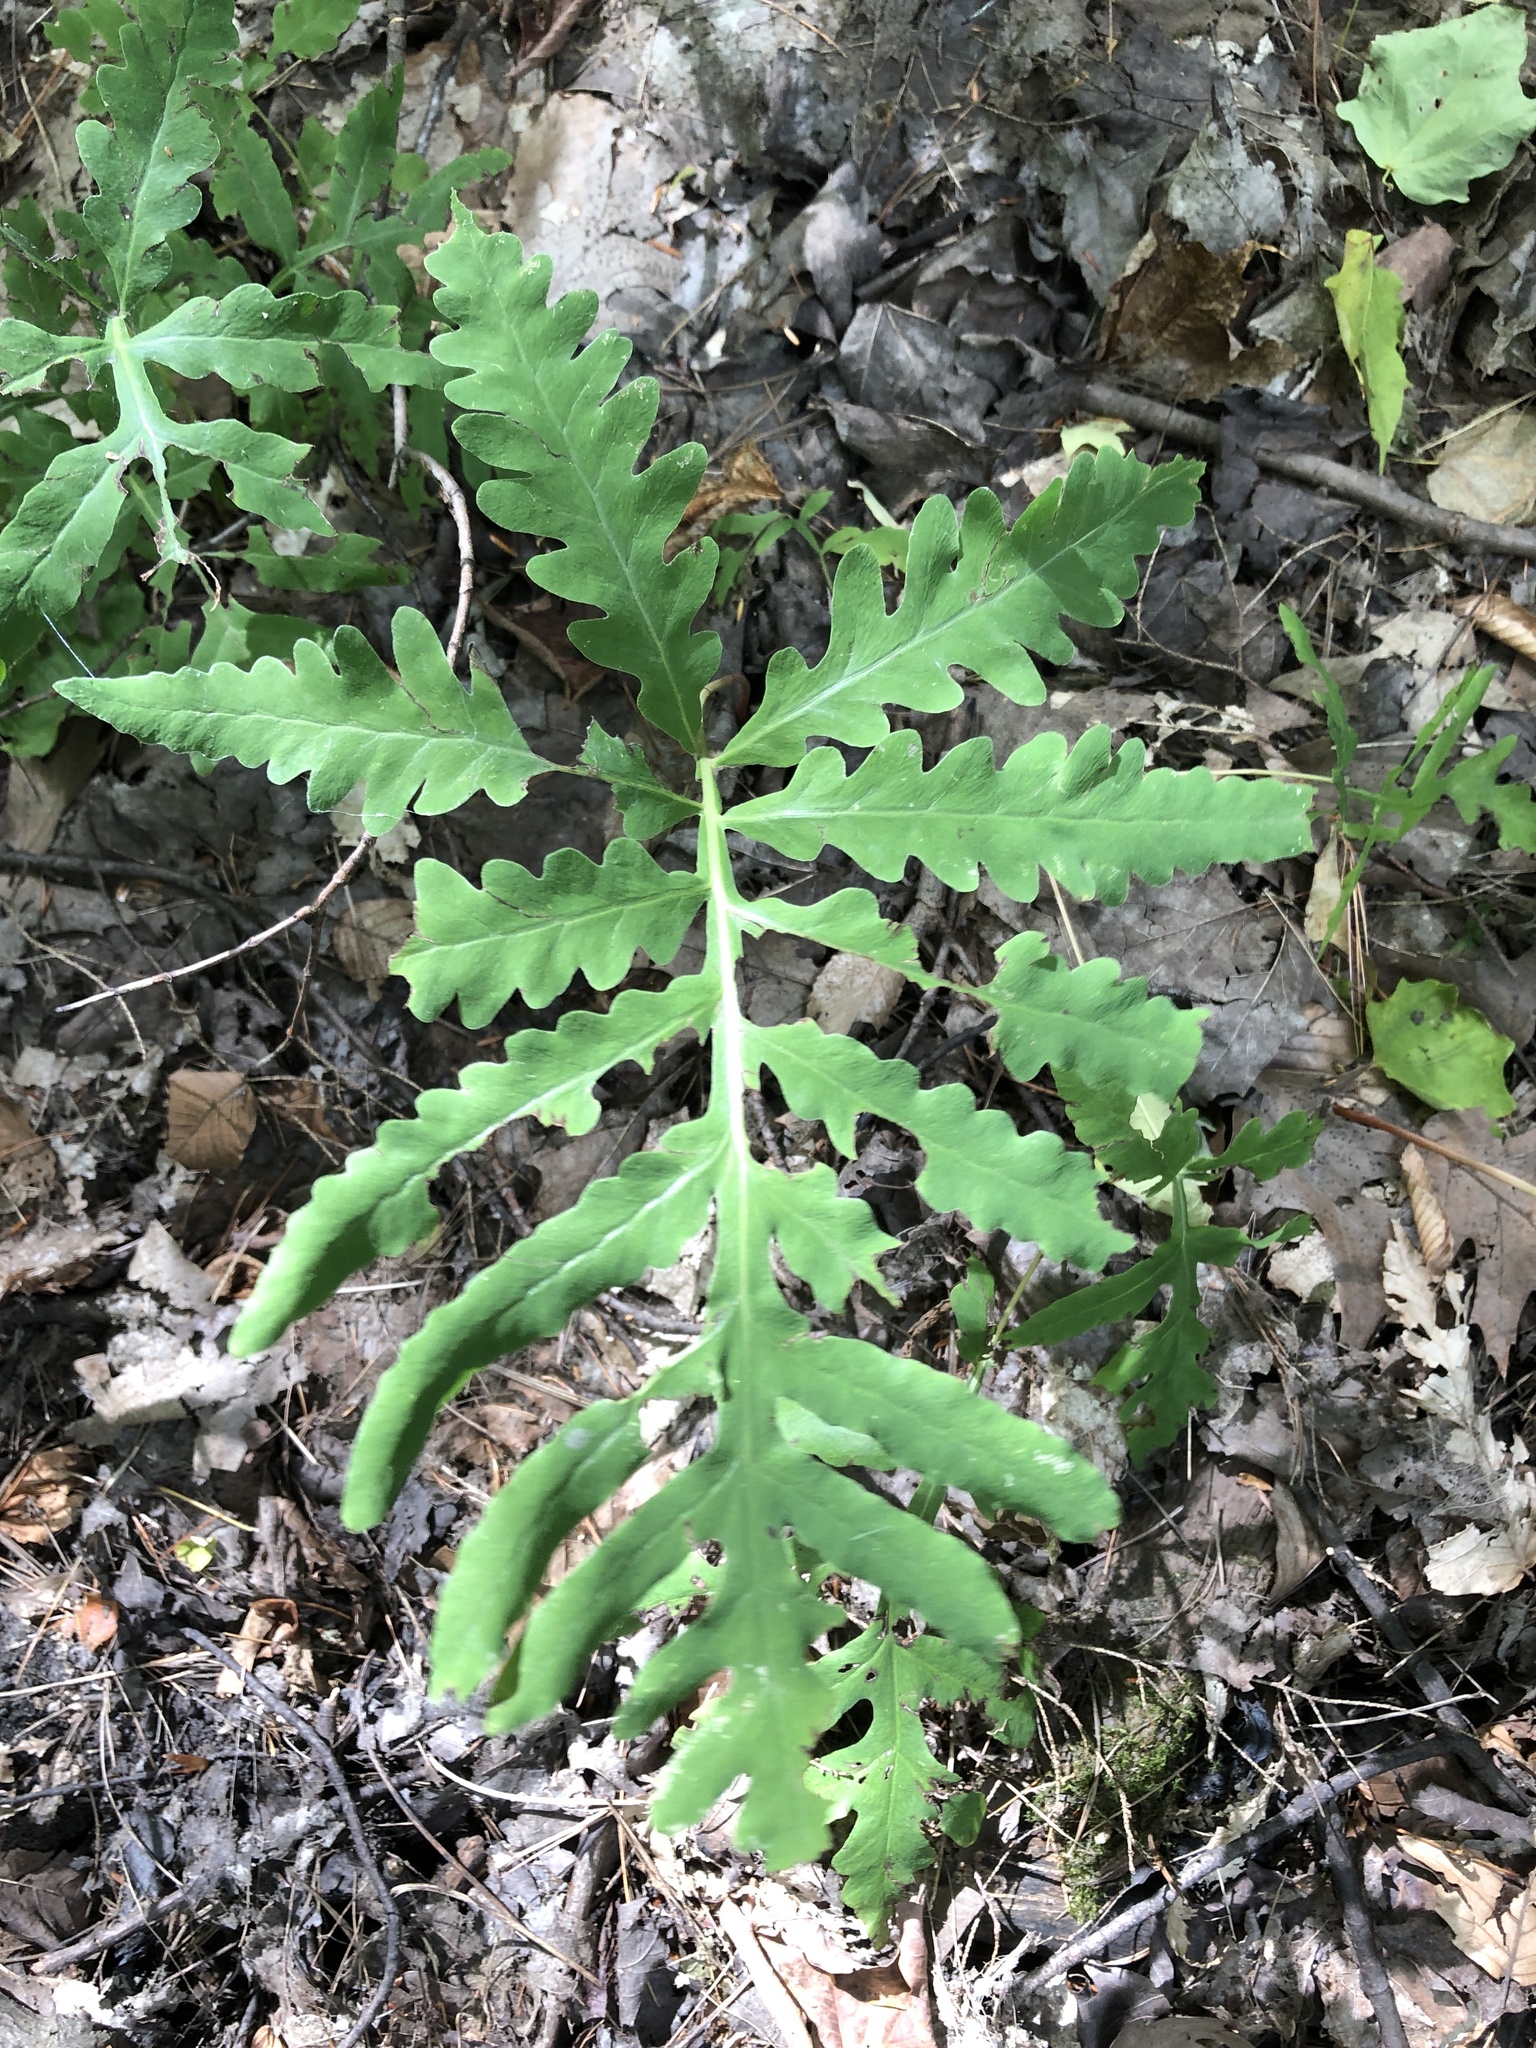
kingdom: Plantae
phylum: Tracheophyta
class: Polypodiopsida
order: Polypodiales
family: Onocleaceae
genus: Onoclea
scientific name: Onoclea sensibilis
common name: Sensitive fern
